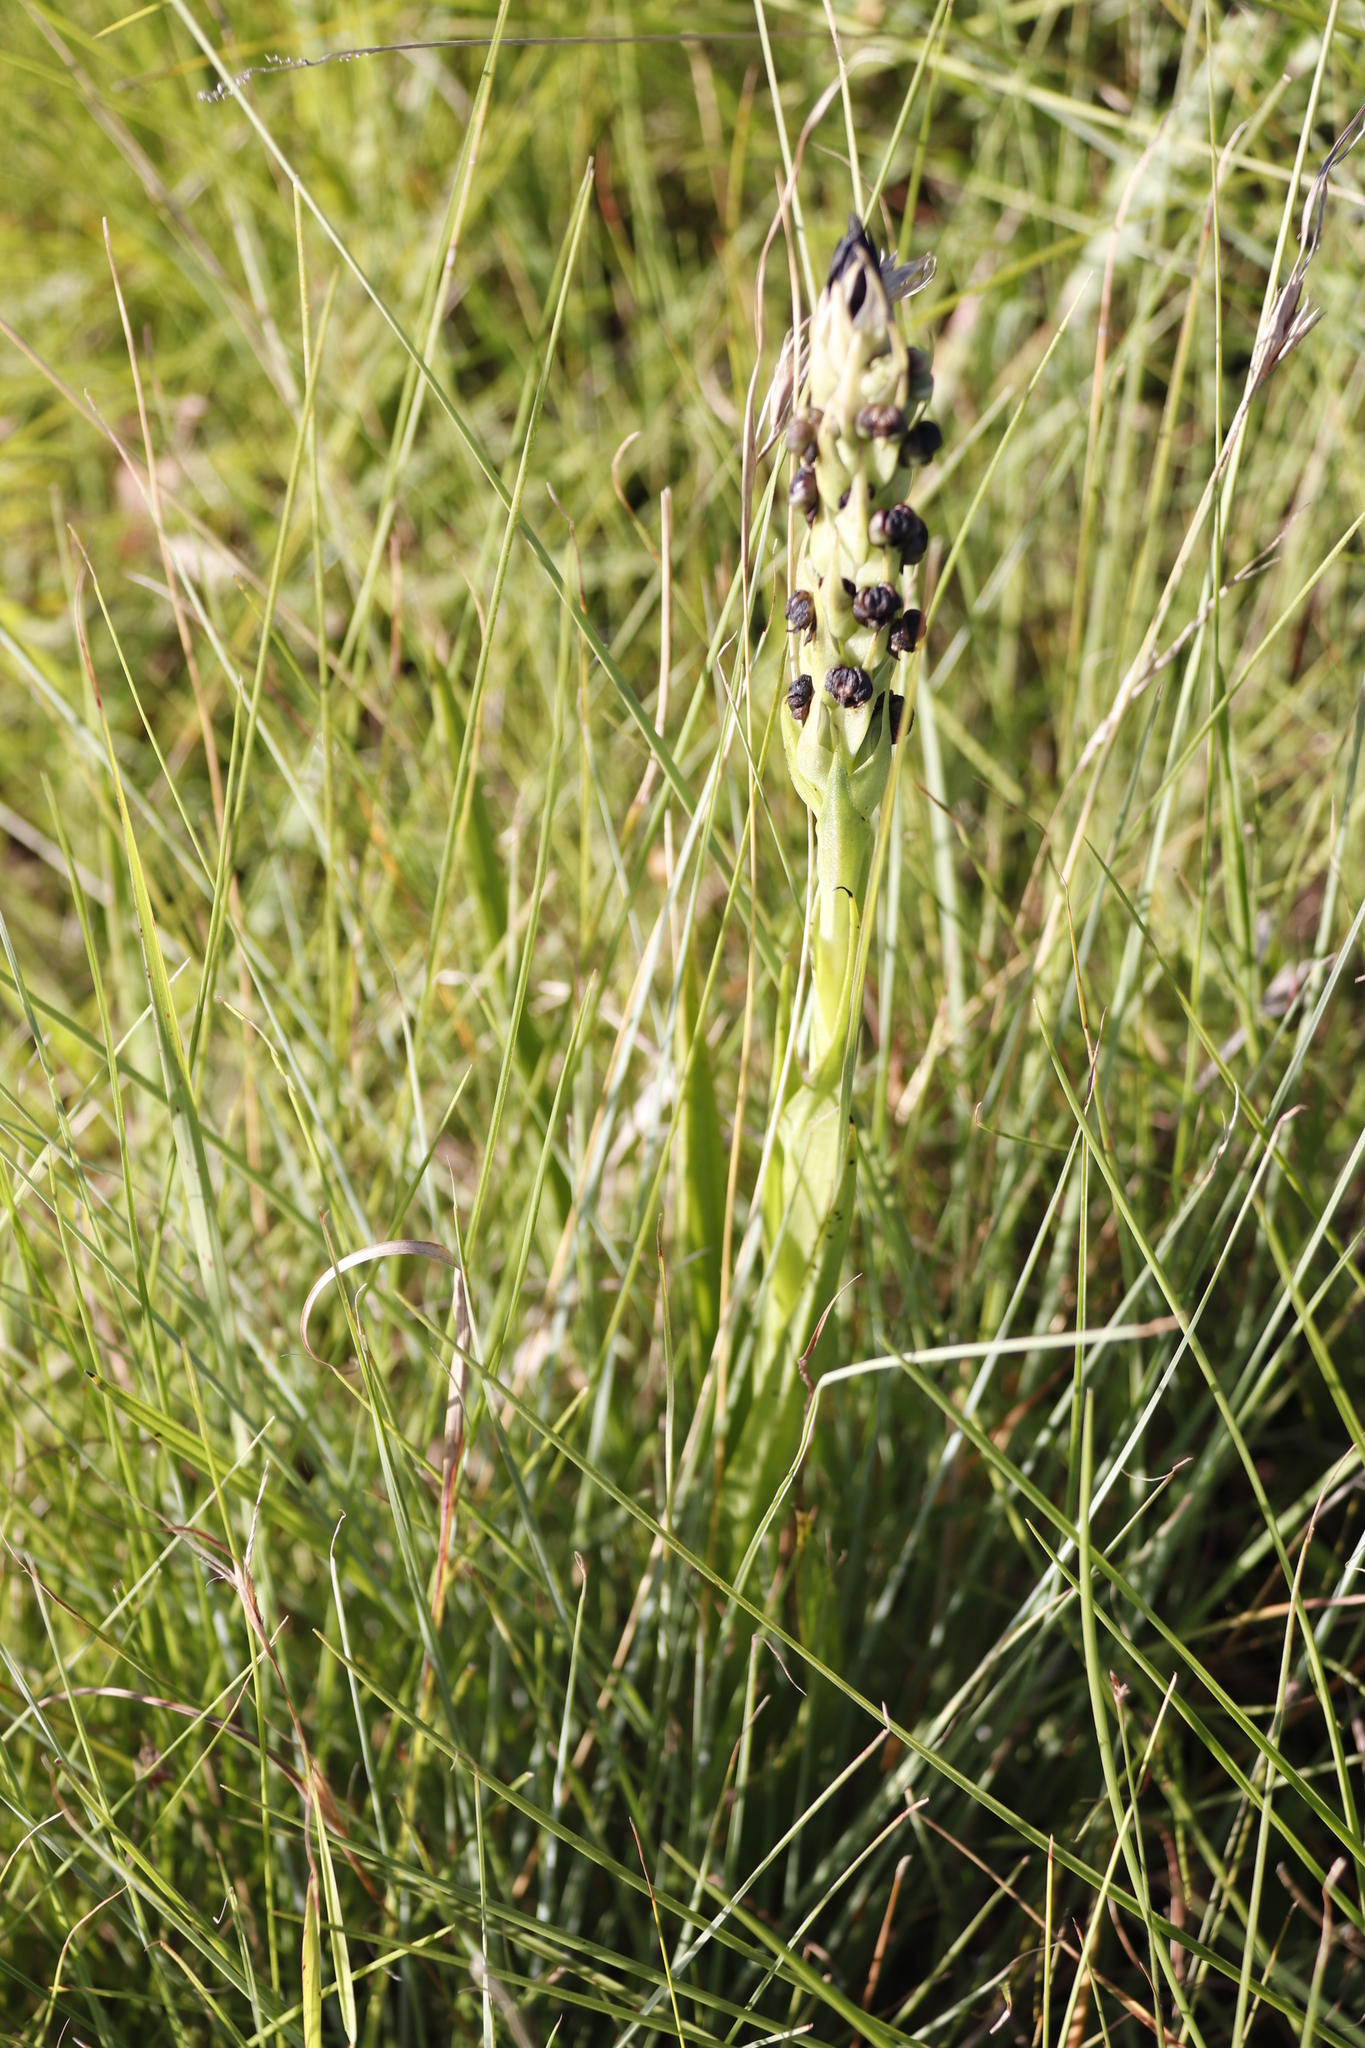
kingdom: Plantae
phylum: Tracheophyta
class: Liliopsida
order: Asparagales
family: Orchidaceae
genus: Corycium
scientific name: Corycium nigrescens
